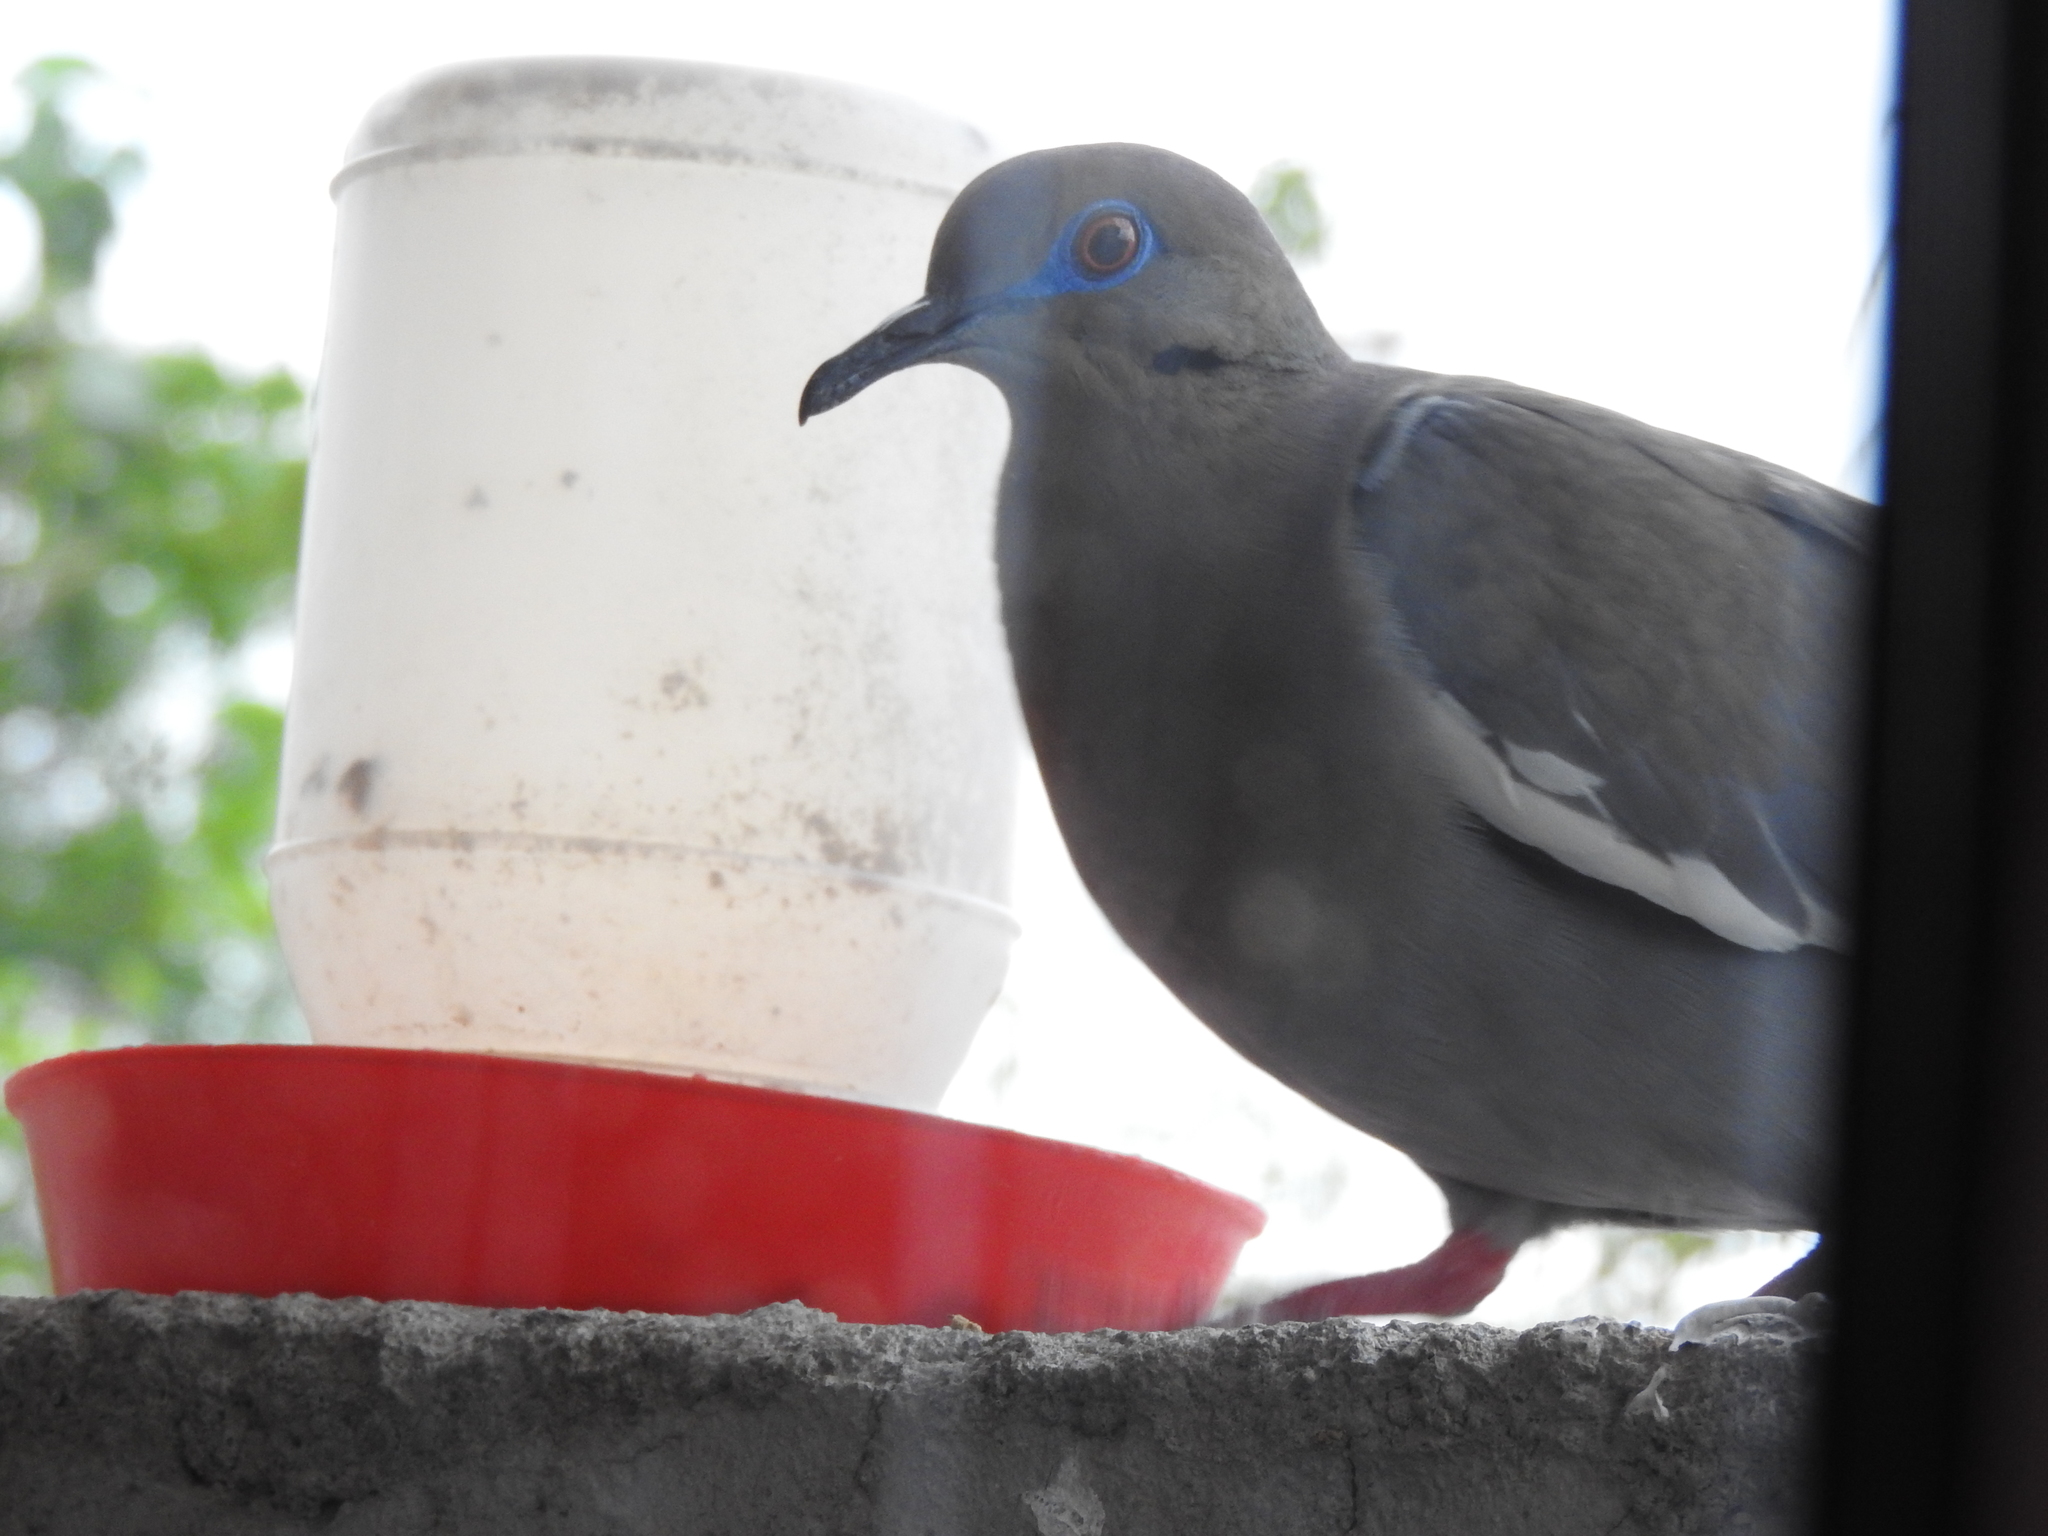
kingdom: Animalia
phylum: Chordata
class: Aves
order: Columbiformes
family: Columbidae
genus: Zenaida
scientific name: Zenaida asiatica
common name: White-winged dove
